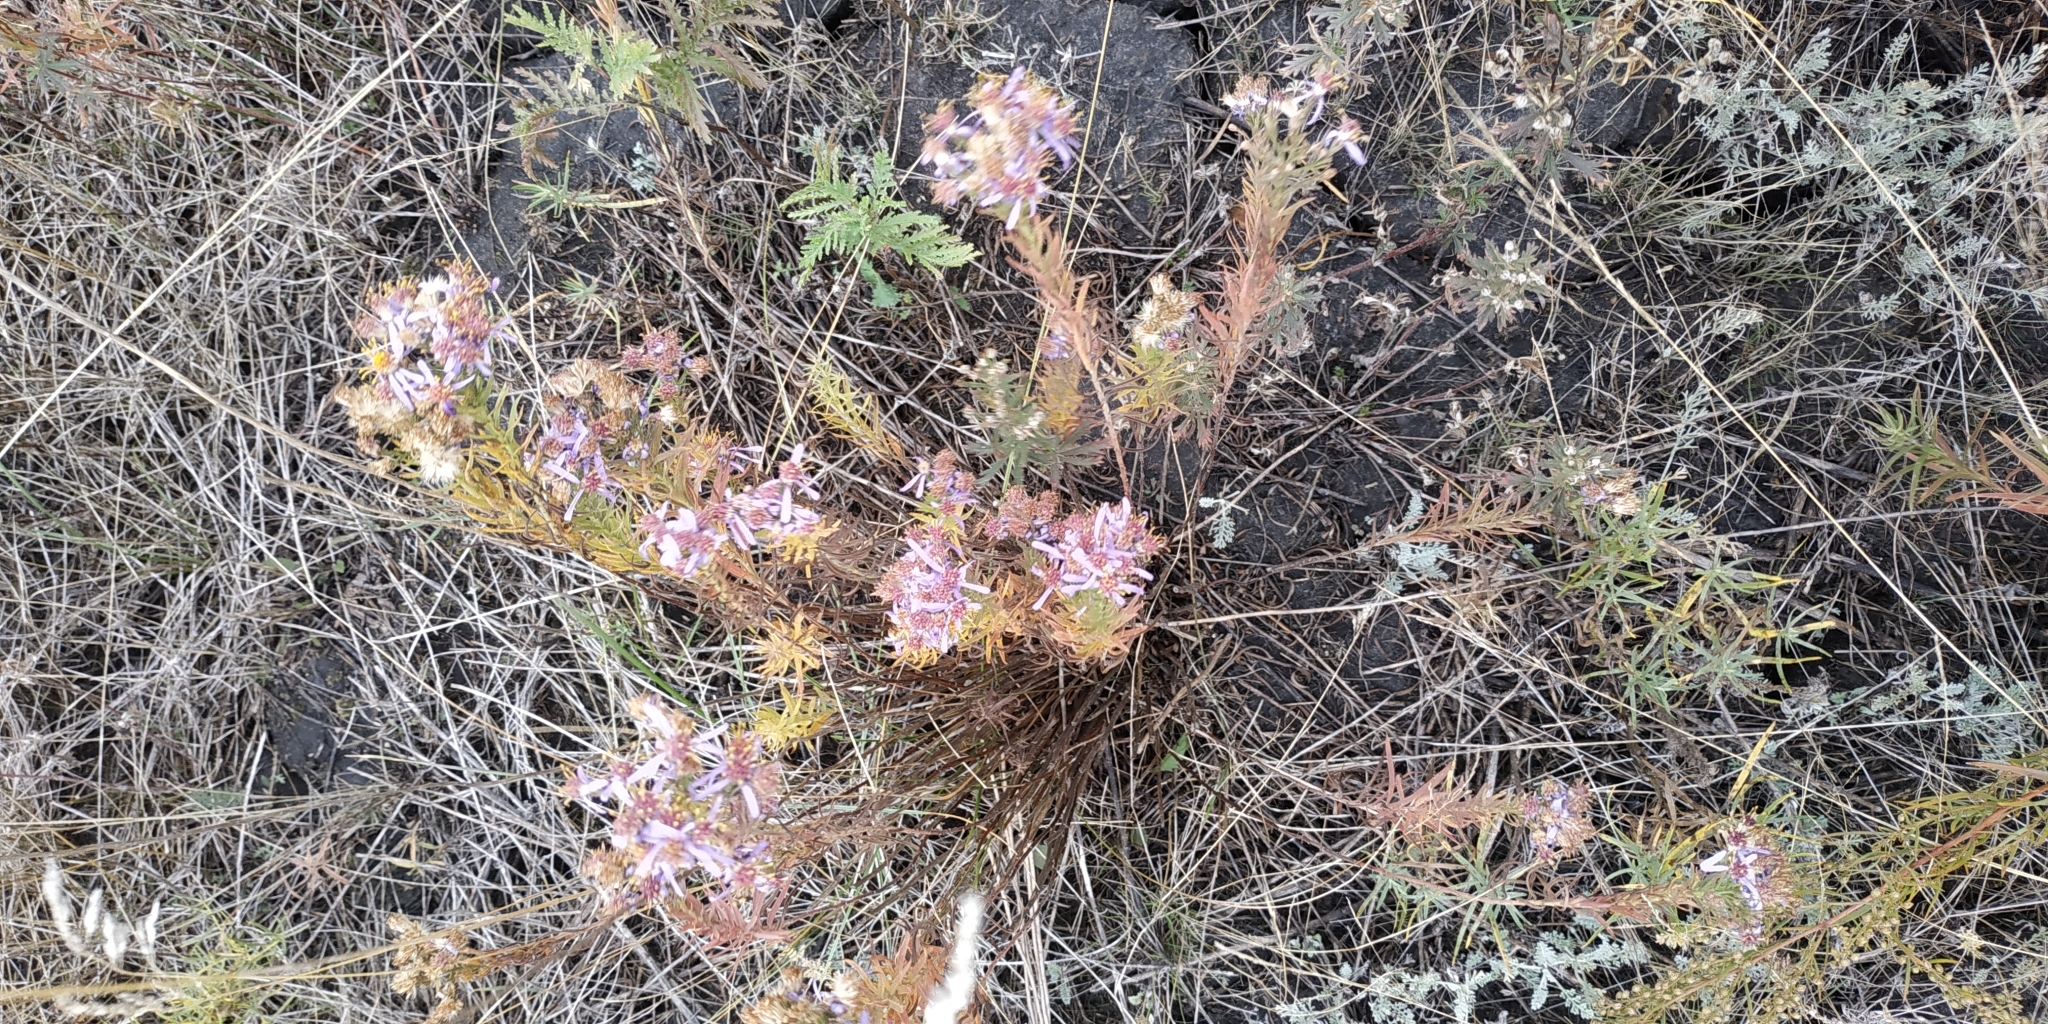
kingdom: Plantae
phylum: Tracheophyta
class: Magnoliopsida
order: Asterales
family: Asteraceae
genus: Galatella
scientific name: Galatella sedifolia
